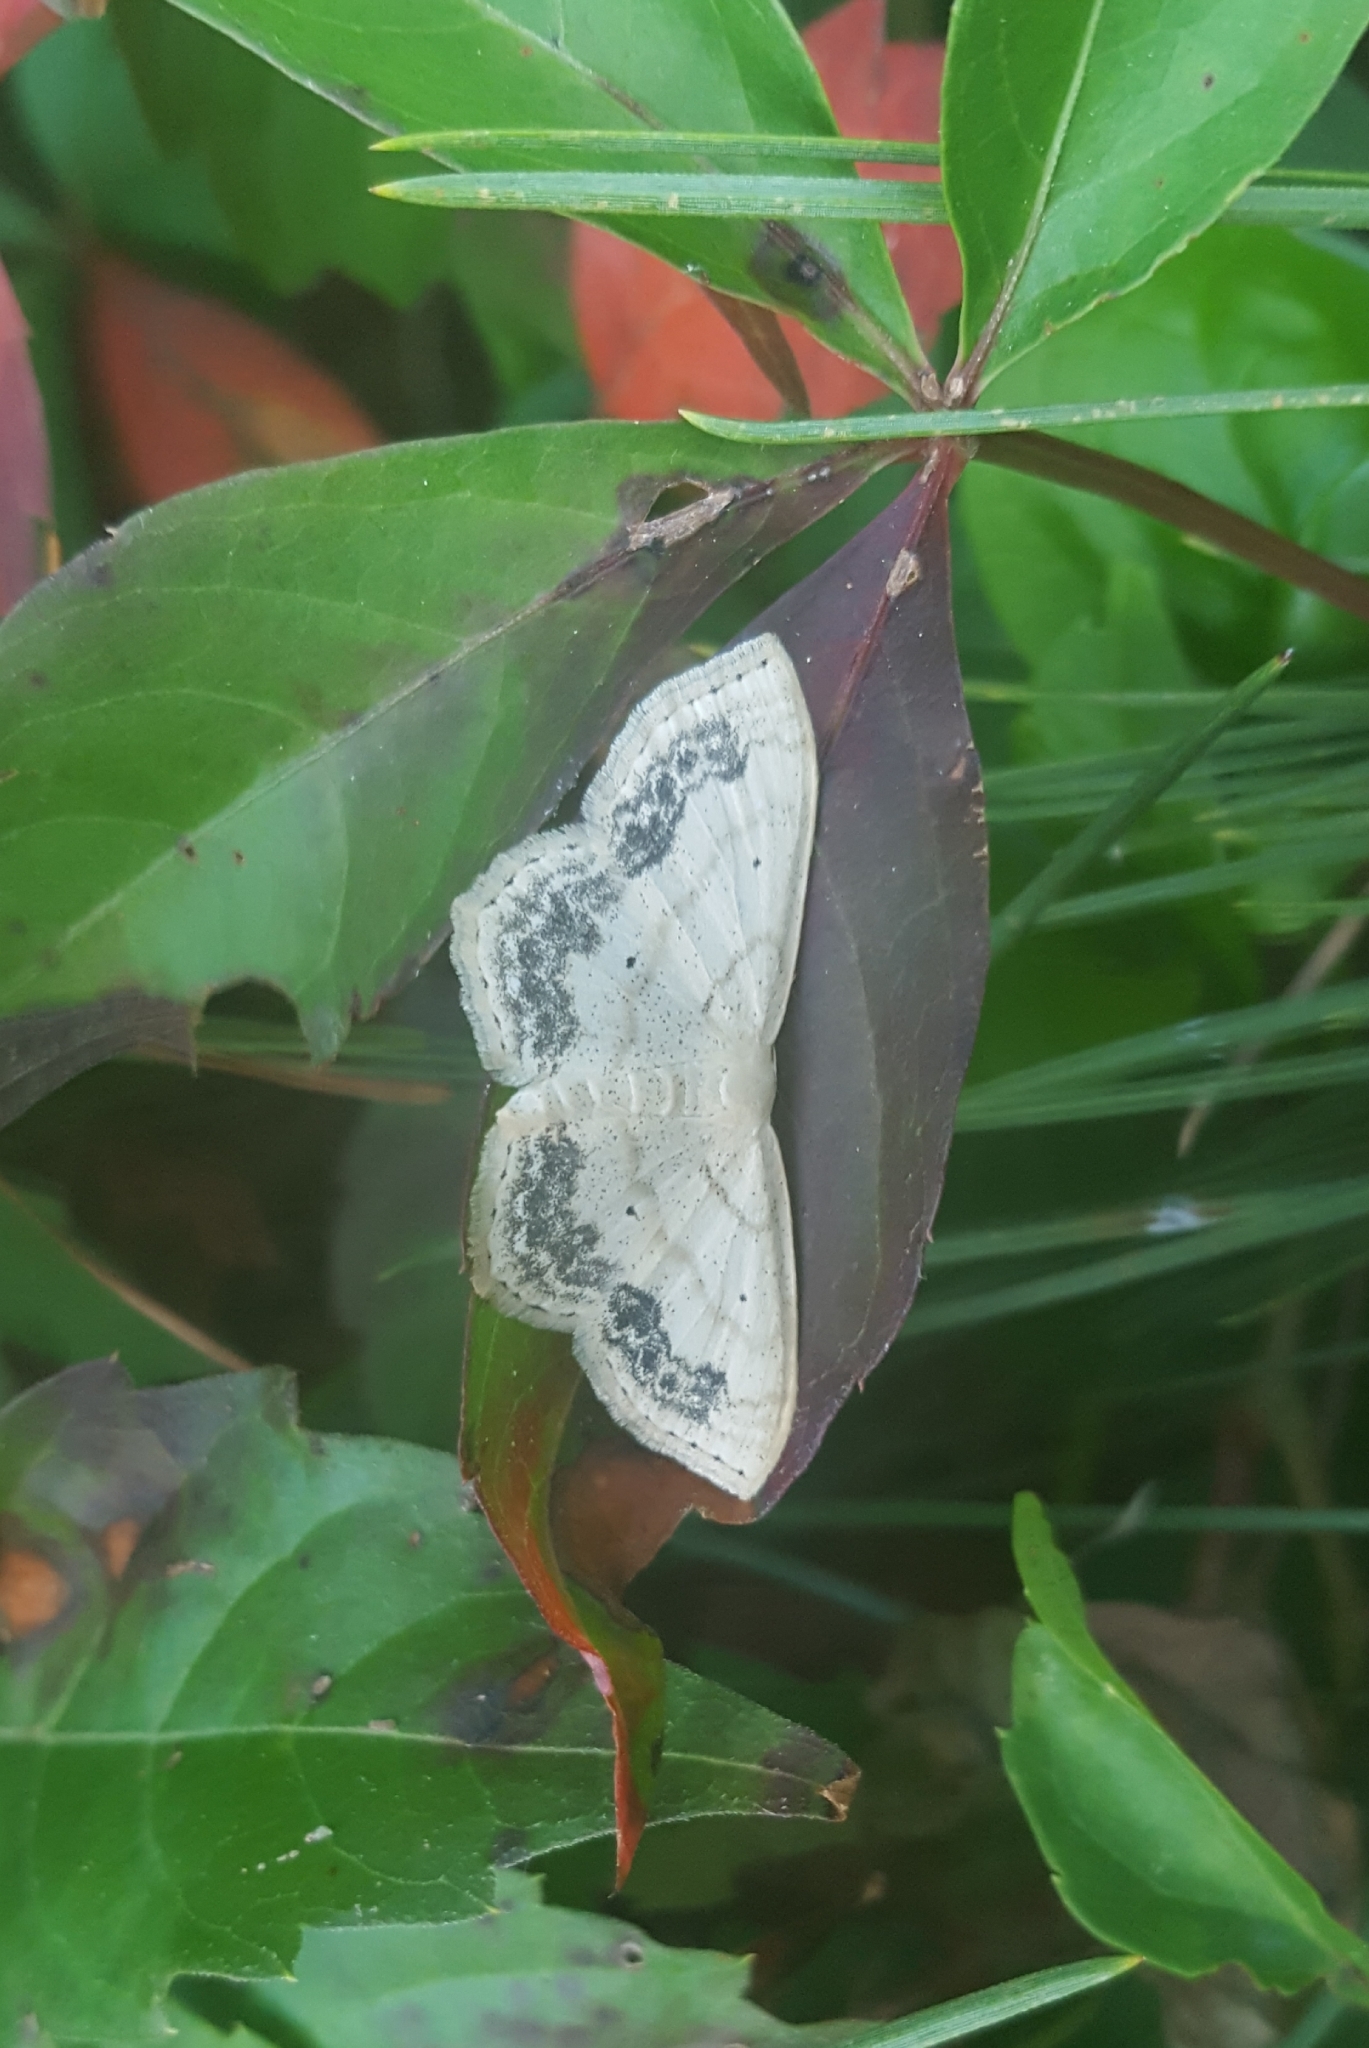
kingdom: Animalia
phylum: Arthropoda
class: Insecta
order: Lepidoptera
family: Geometridae
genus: Scopula
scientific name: Scopula limboundata
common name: Large lace border
